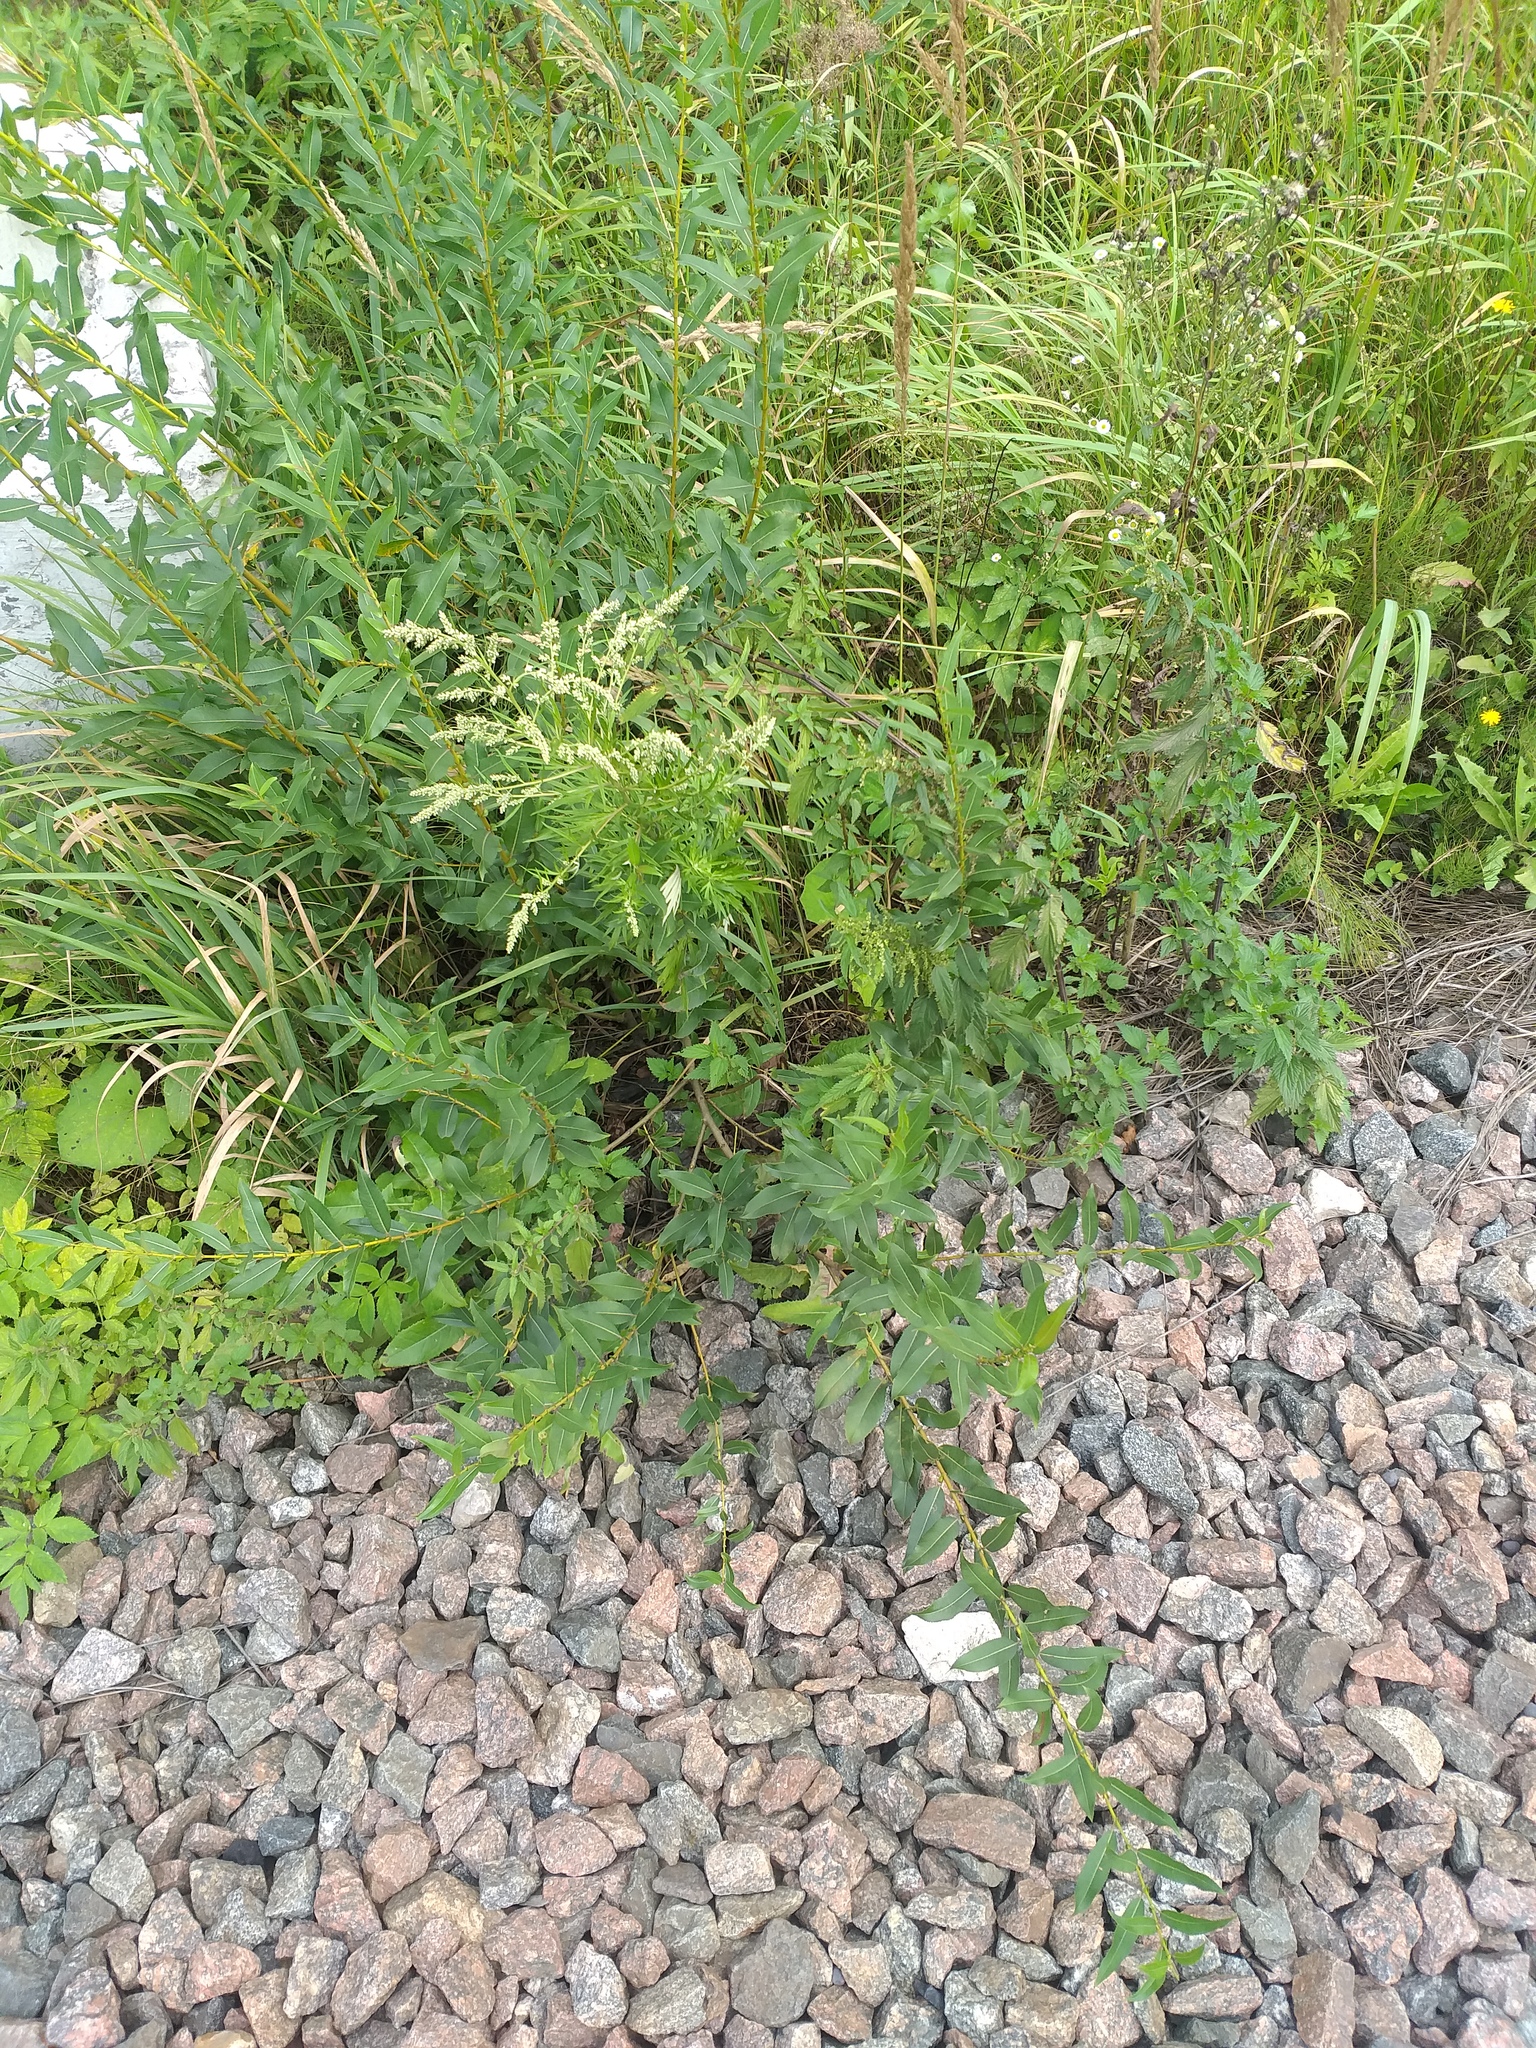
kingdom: Plantae
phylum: Tracheophyta
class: Magnoliopsida
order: Malpighiales
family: Salicaceae
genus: Salix
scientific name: Salix triandra
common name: Almond willow
